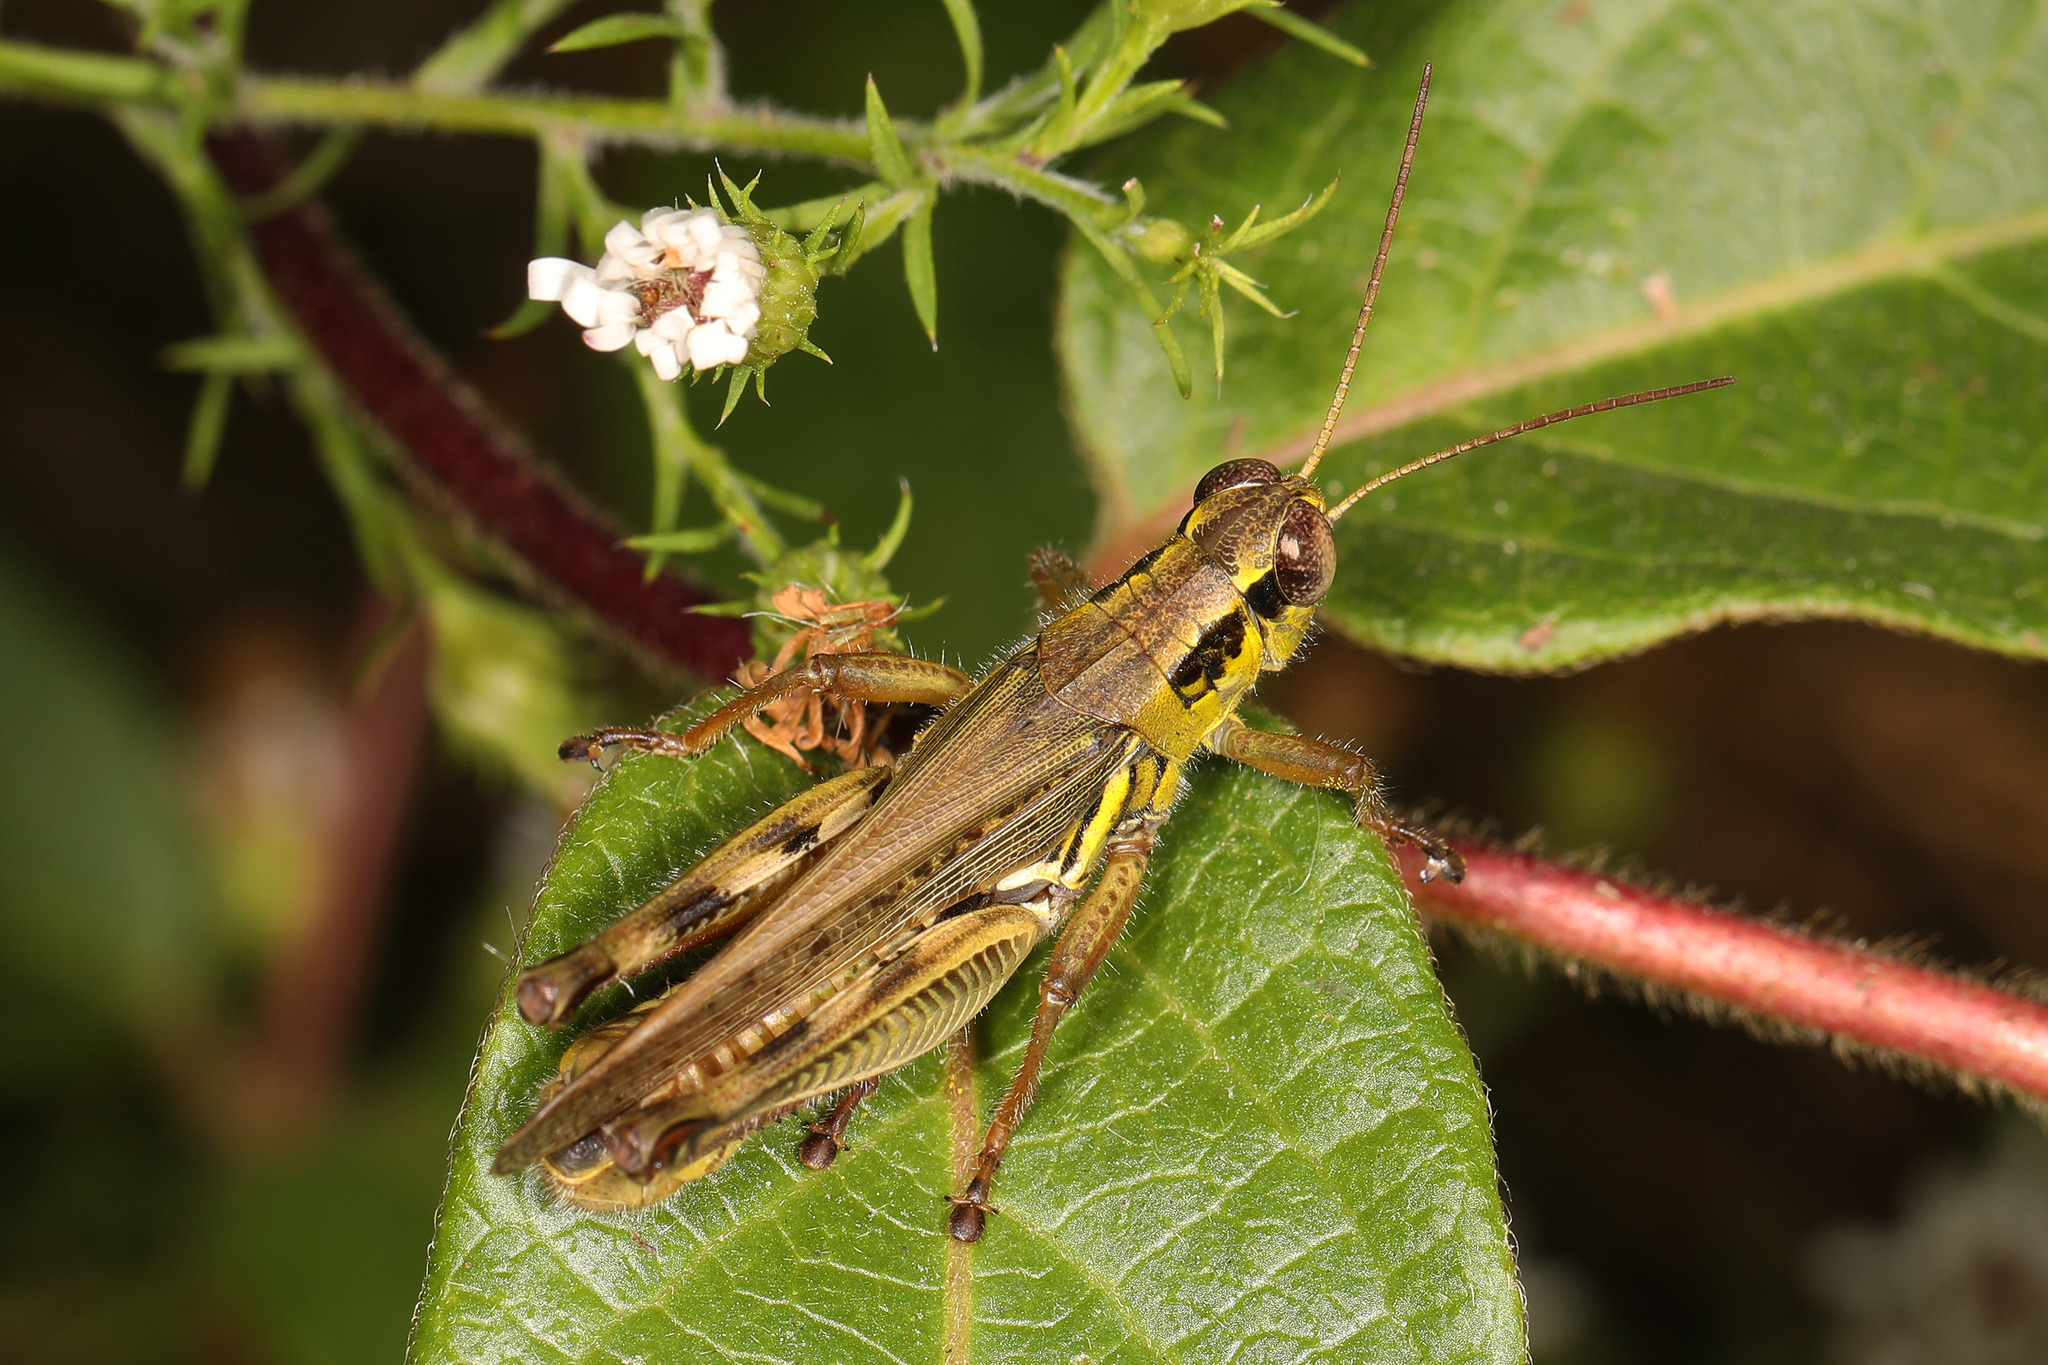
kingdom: Animalia
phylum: Arthropoda
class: Insecta
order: Orthoptera
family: Acrididae
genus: Melanoplus
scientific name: Melanoplus femurrubrum
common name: Red-legged grasshopper
